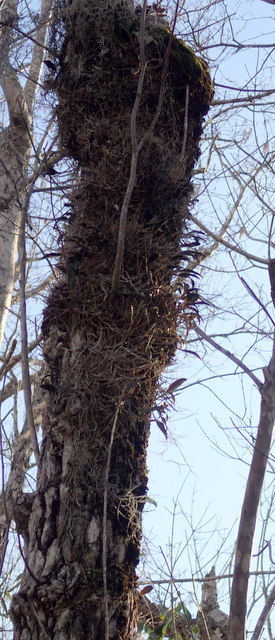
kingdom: Plantae
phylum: Tracheophyta
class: Liliopsida
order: Asparagales
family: Orchidaceae
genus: Epidendrum
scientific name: Epidendrum conopseum
